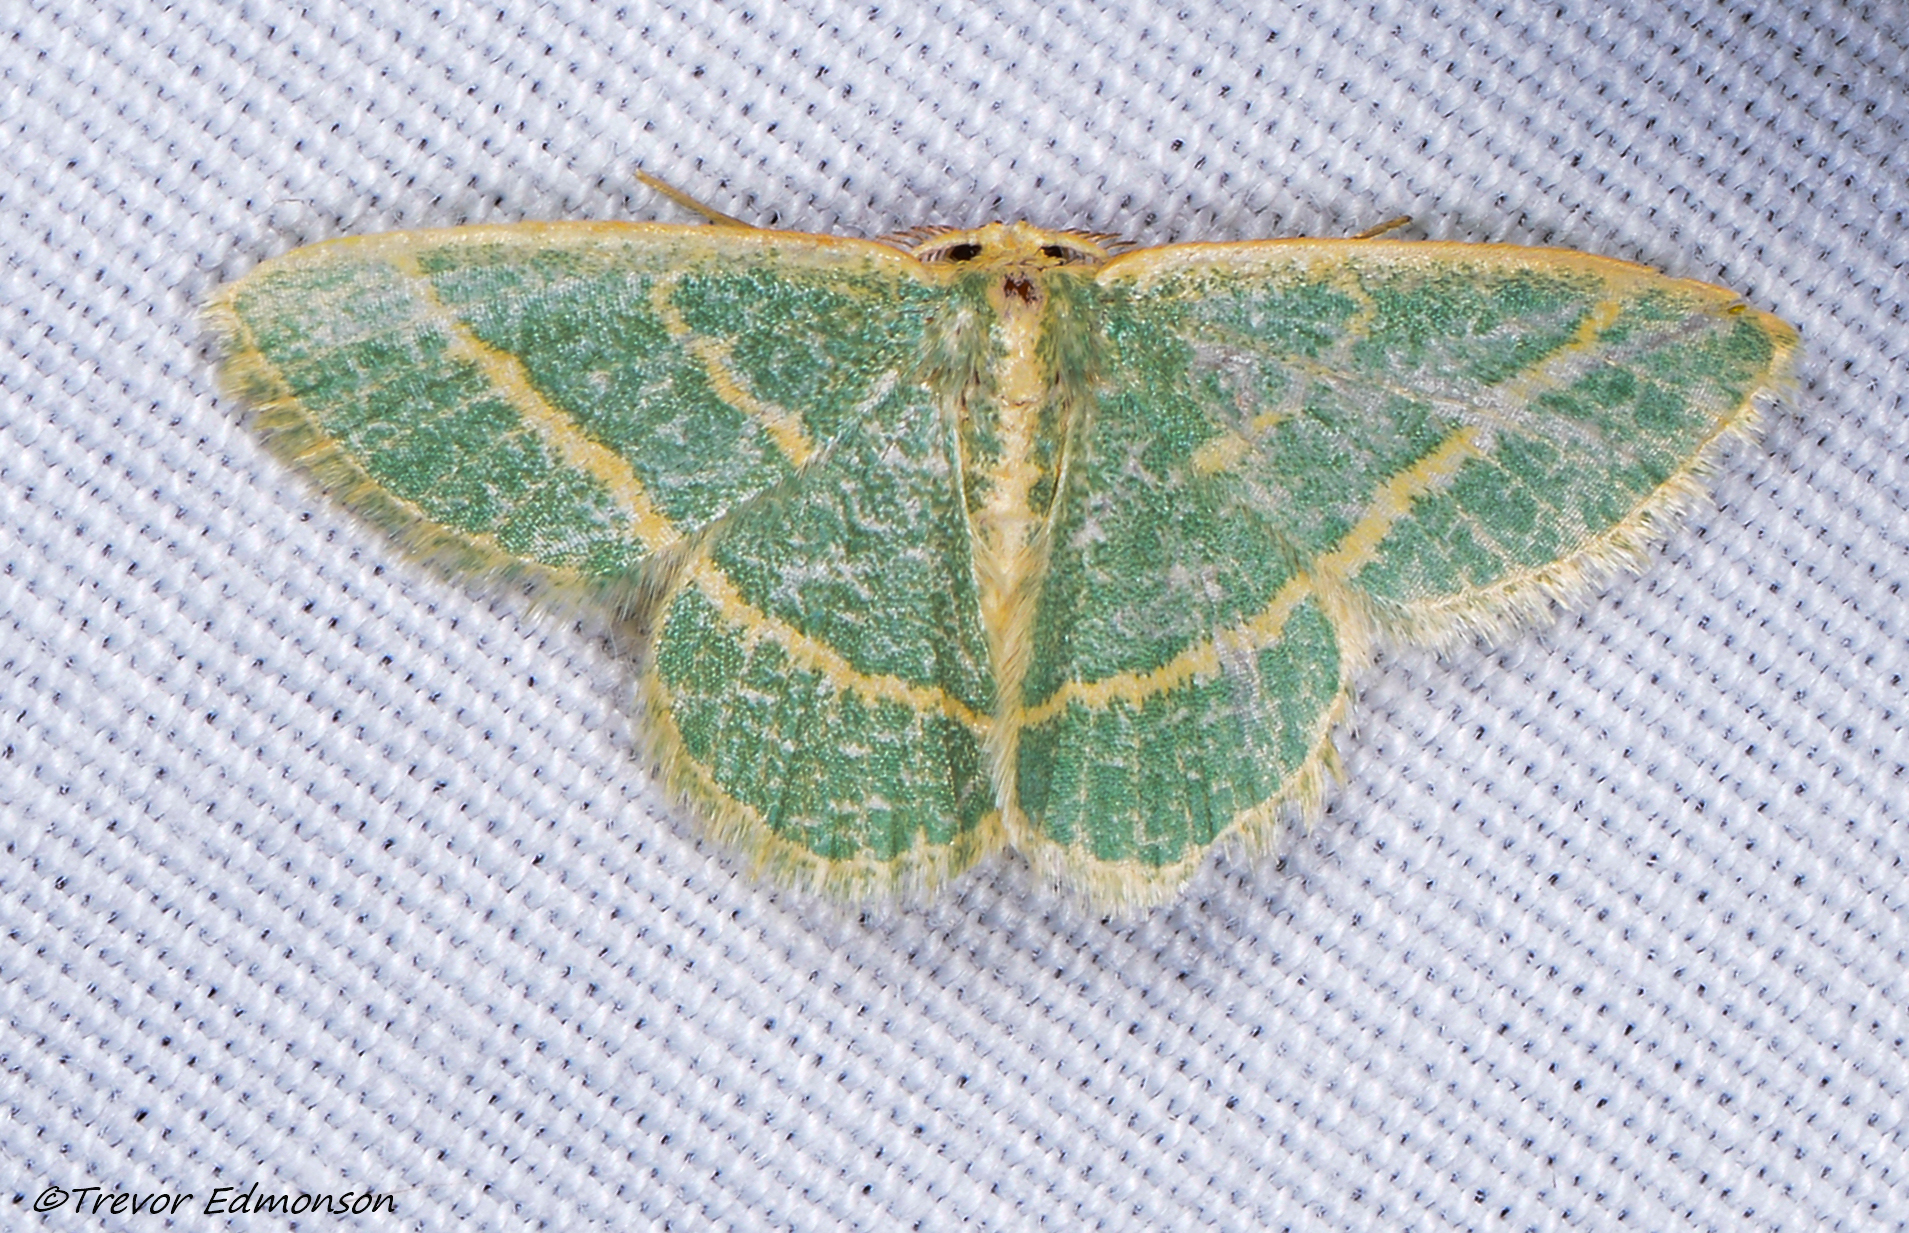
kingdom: Animalia
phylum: Arthropoda
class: Insecta
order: Lepidoptera
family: Geometridae
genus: Chlorochlamys
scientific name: Chlorochlamys chloroleucaria
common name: Blackberry looper
